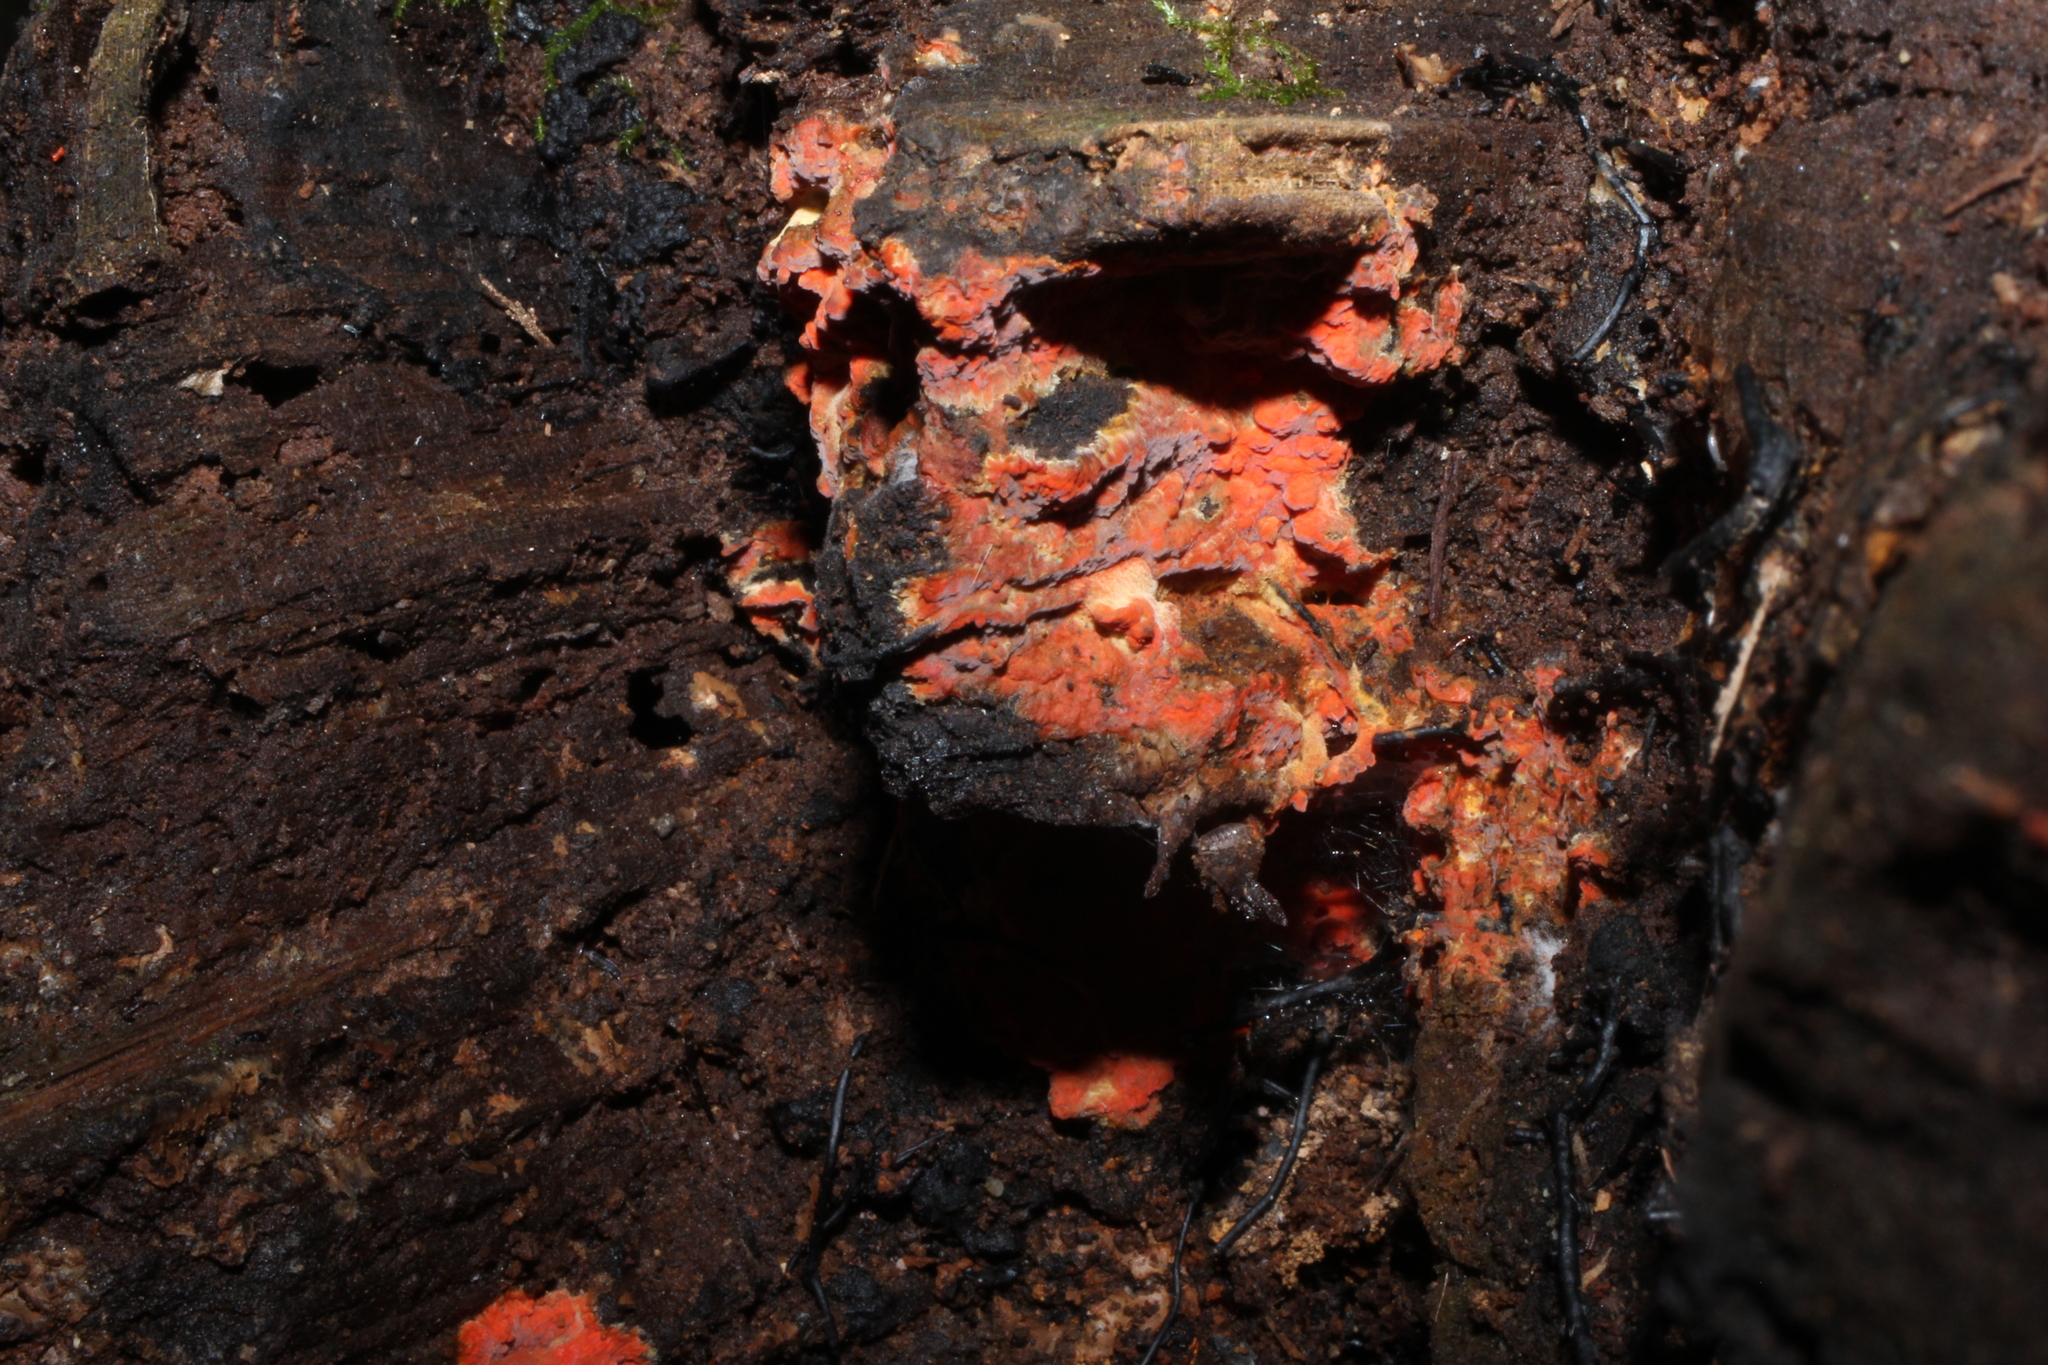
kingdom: Fungi
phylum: Basidiomycota
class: Agaricomycetes
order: Polyporales
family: Meruliaceae
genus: Phlebia
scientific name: Phlebia coccineofulva
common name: Scarlet waxcrust
